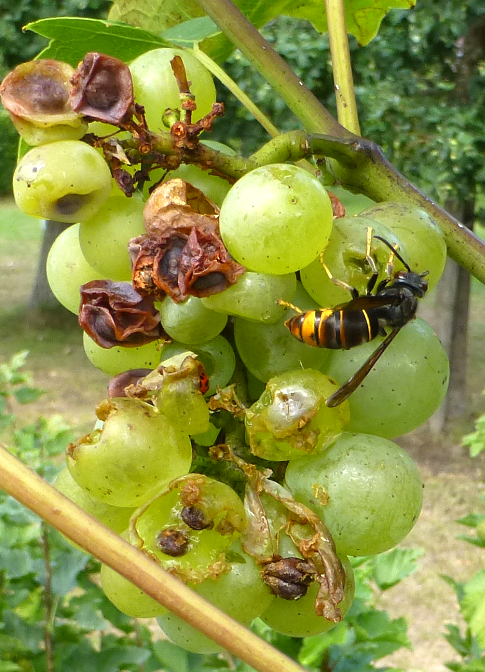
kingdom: Animalia
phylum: Arthropoda
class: Insecta
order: Hymenoptera
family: Vespidae
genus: Vespa
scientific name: Vespa velutina
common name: Asian hornet
